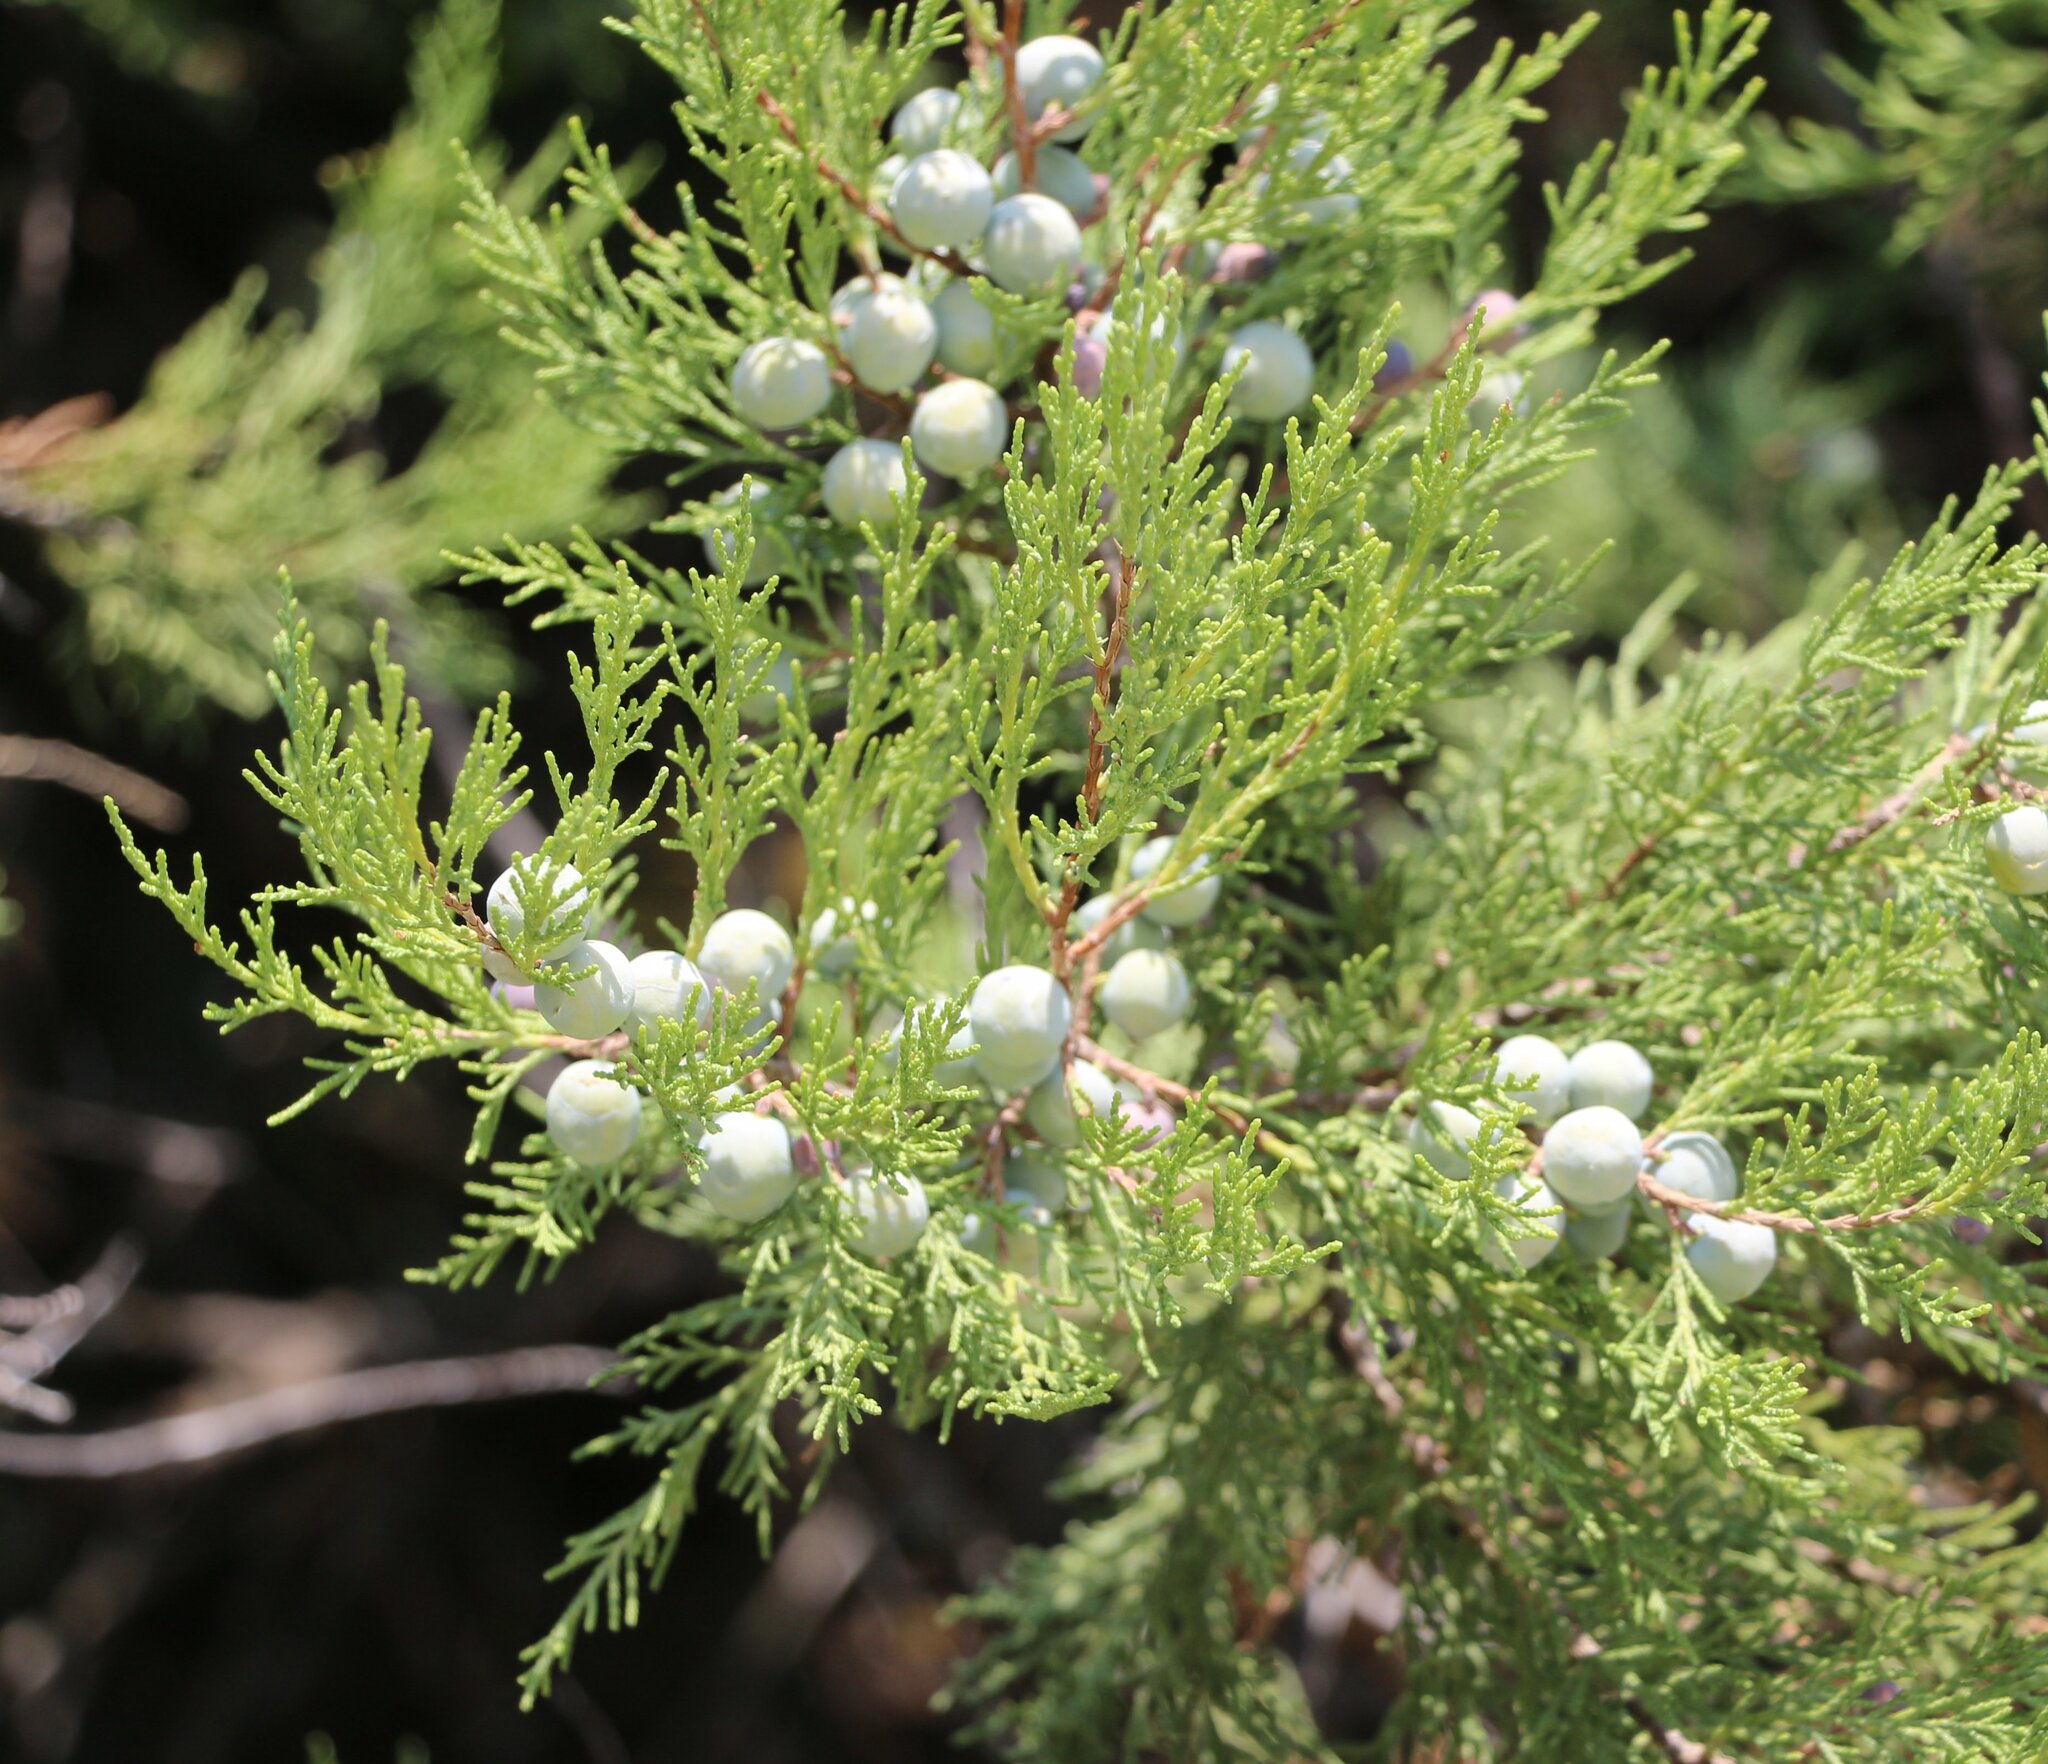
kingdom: Plantae
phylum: Tracheophyta
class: Pinopsida
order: Pinales
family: Cupressaceae
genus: Juniperus
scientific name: Juniperus excelsa
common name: Crimean juniper
